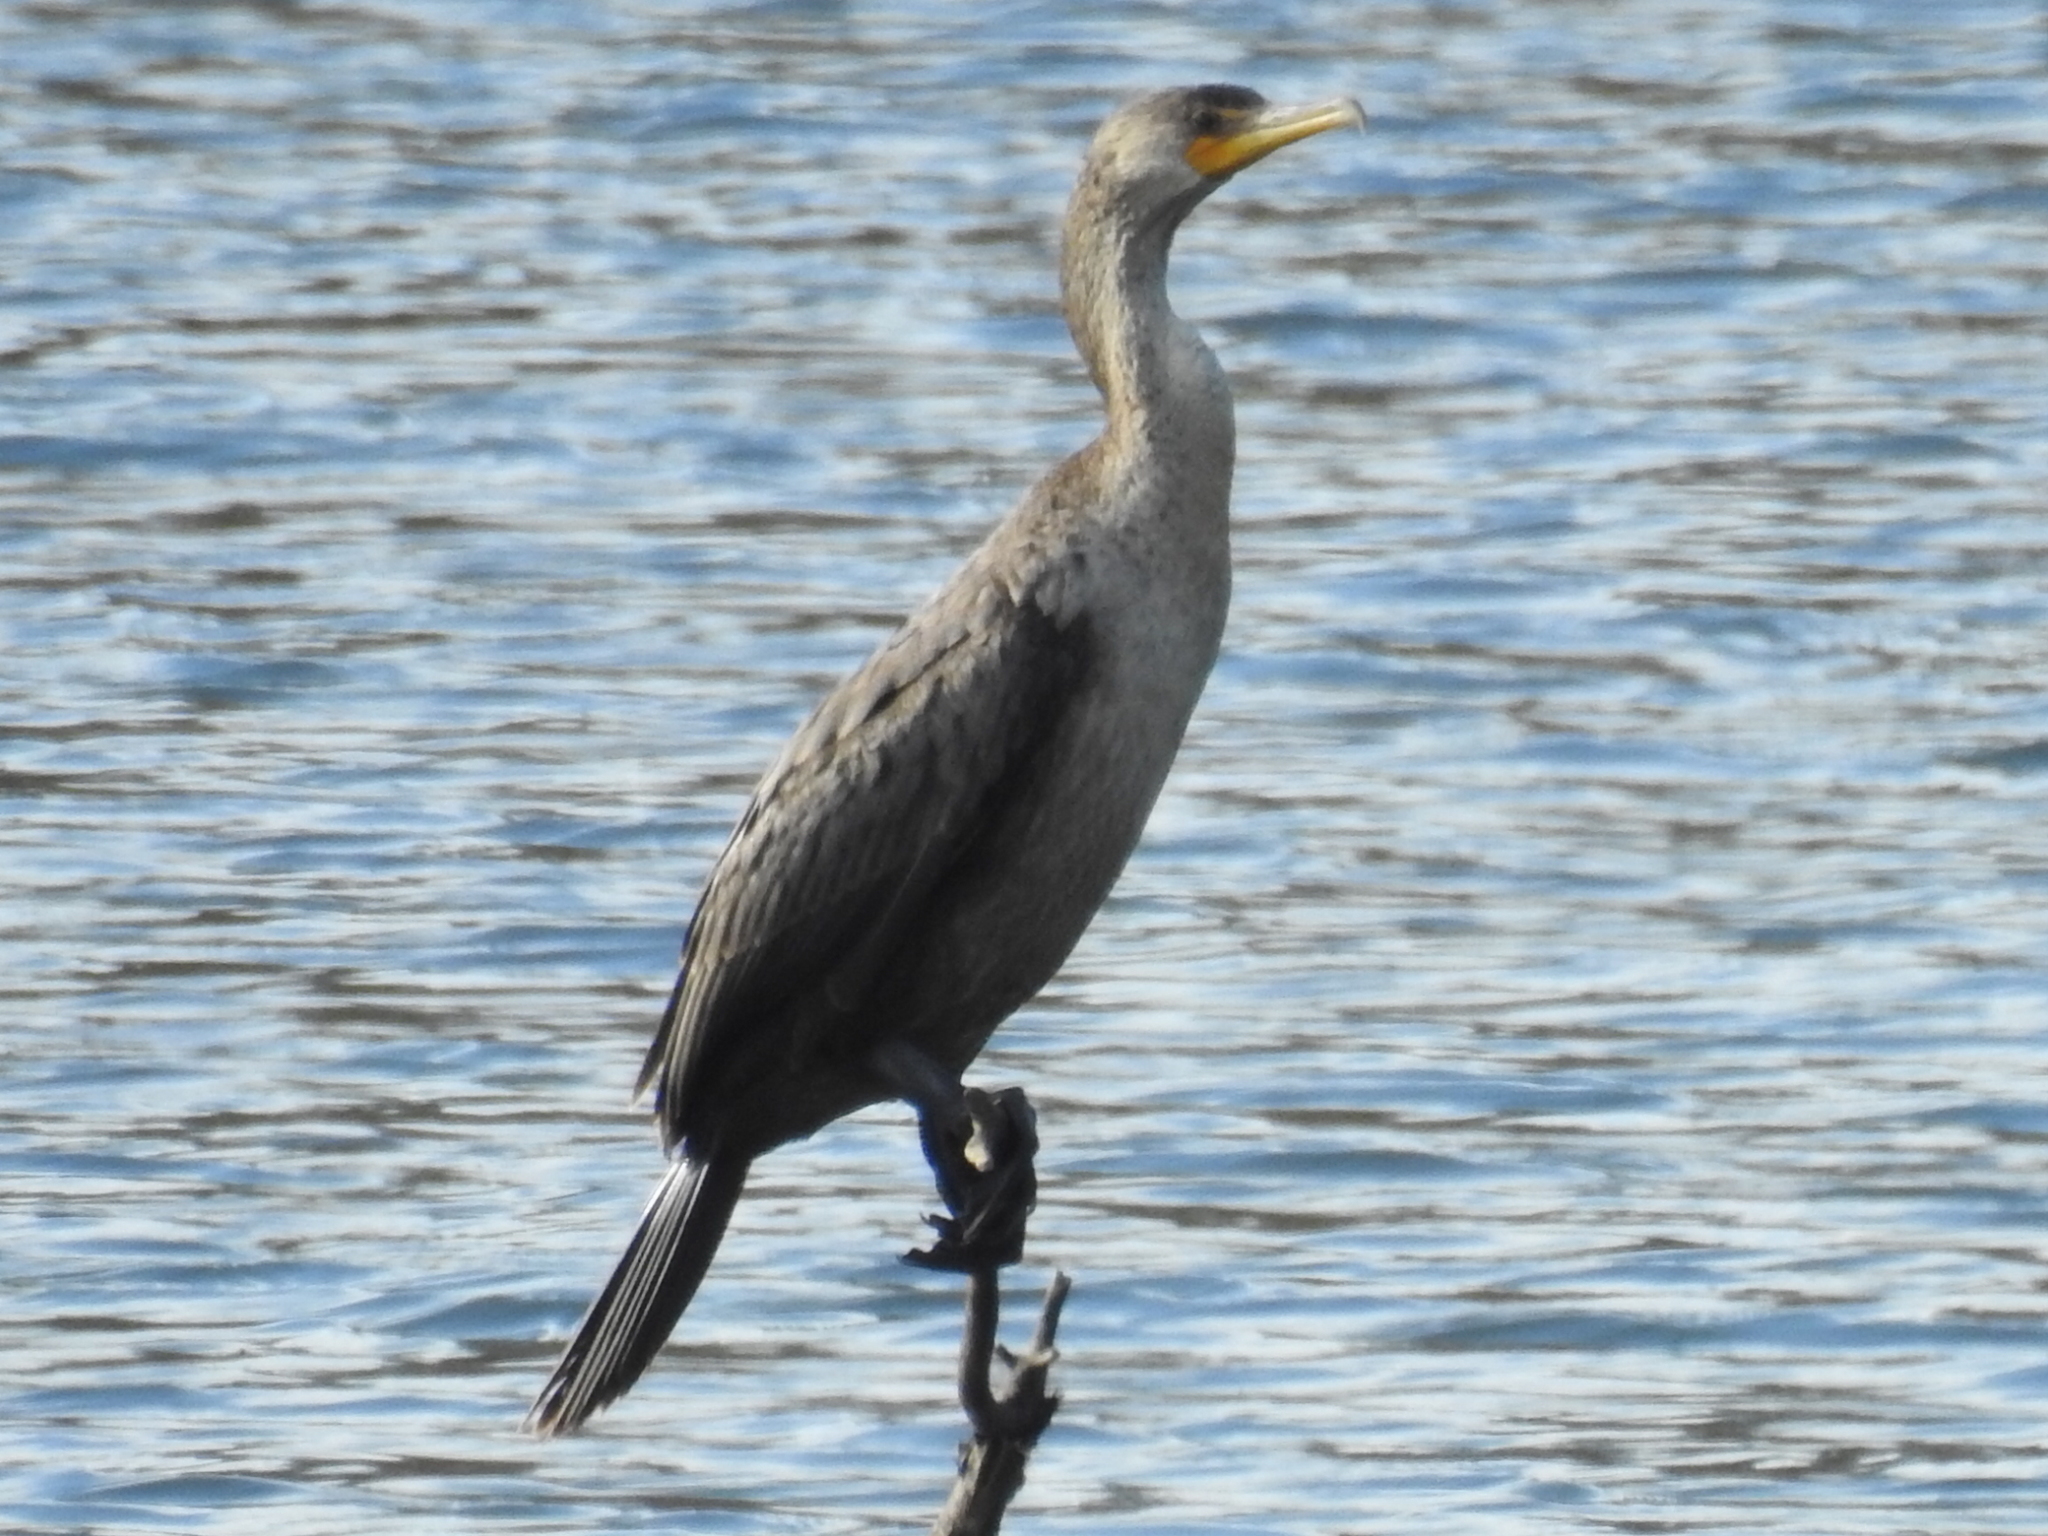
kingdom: Animalia
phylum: Chordata
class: Aves
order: Suliformes
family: Phalacrocoracidae
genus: Phalacrocorax
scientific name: Phalacrocorax auritus
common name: Double-crested cormorant
